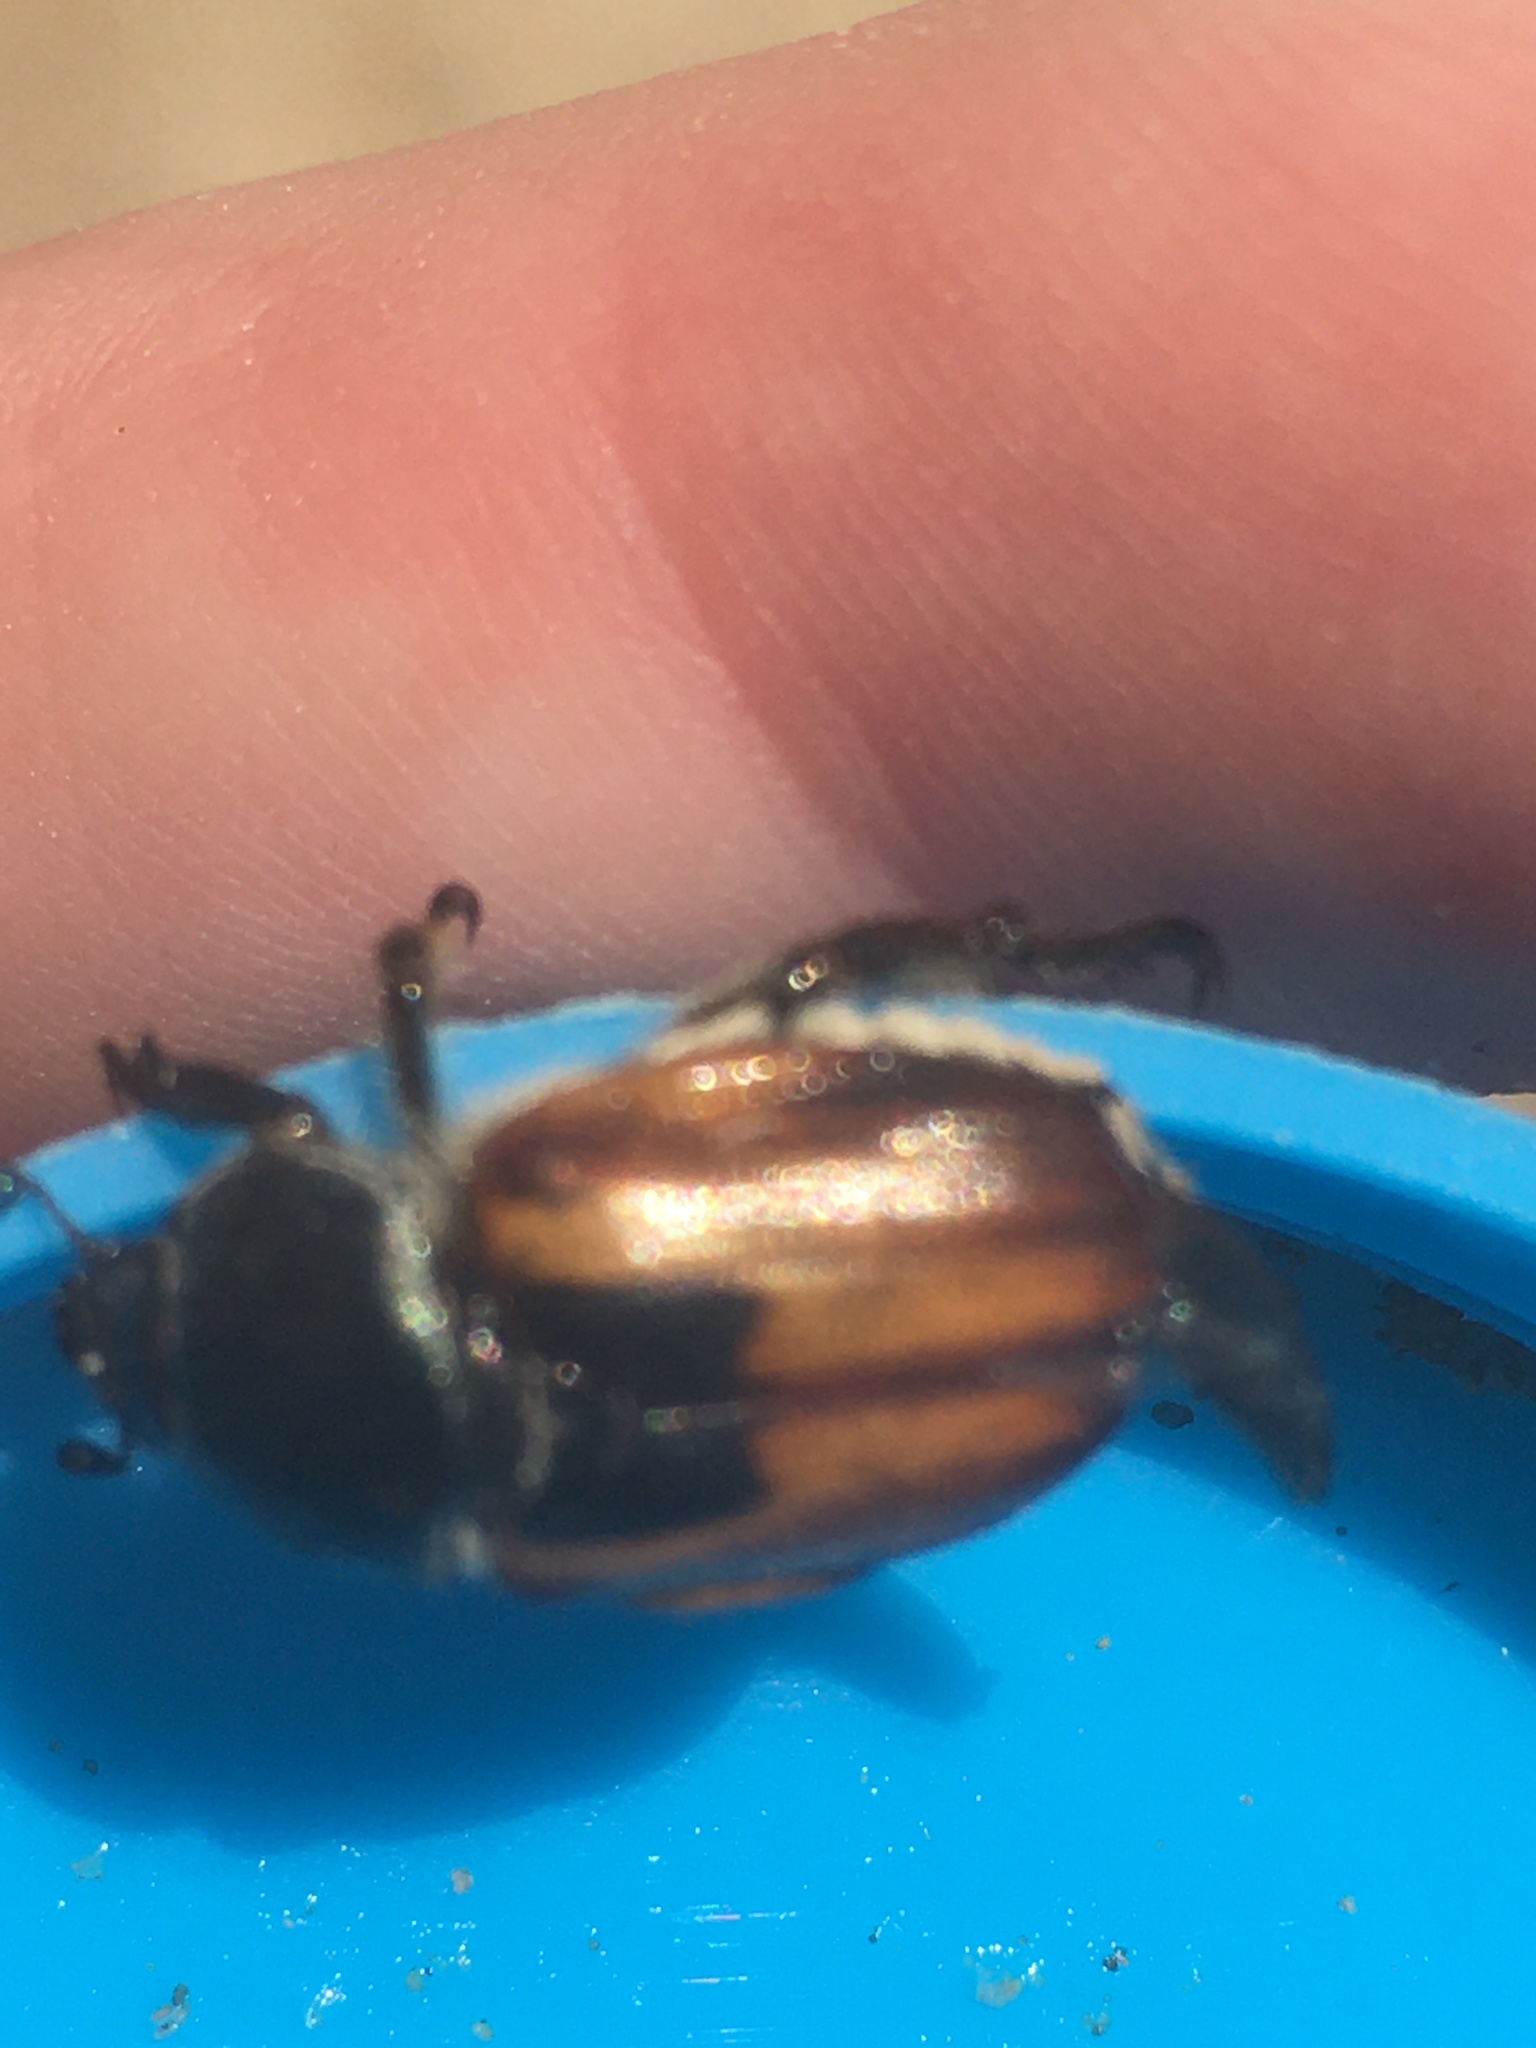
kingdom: Animalia
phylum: Arthropoda
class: Insecta
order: Coleoptera
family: Scarabaeidae
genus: Anisoplia
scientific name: Anisoplia austriaca
